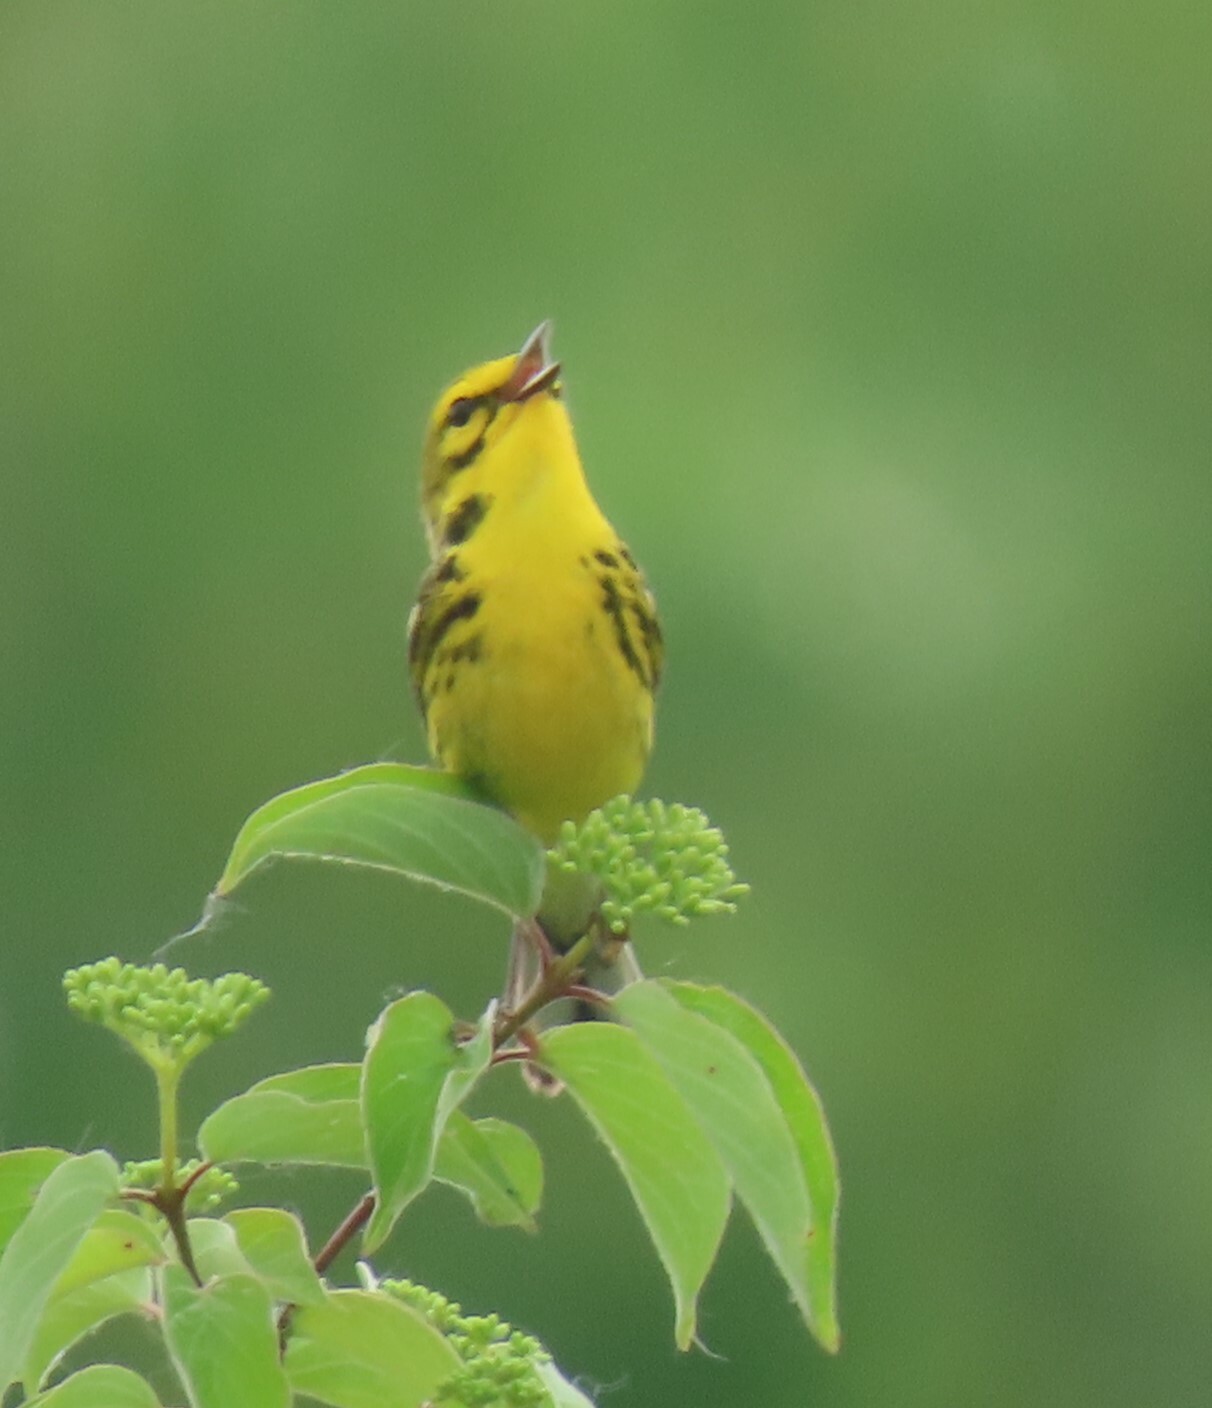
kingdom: Animalia
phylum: Chordata
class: Aves
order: Passeriformes
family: Parulidae
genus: Setophaga
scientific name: Setophaga discolor
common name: Prairie warbler
